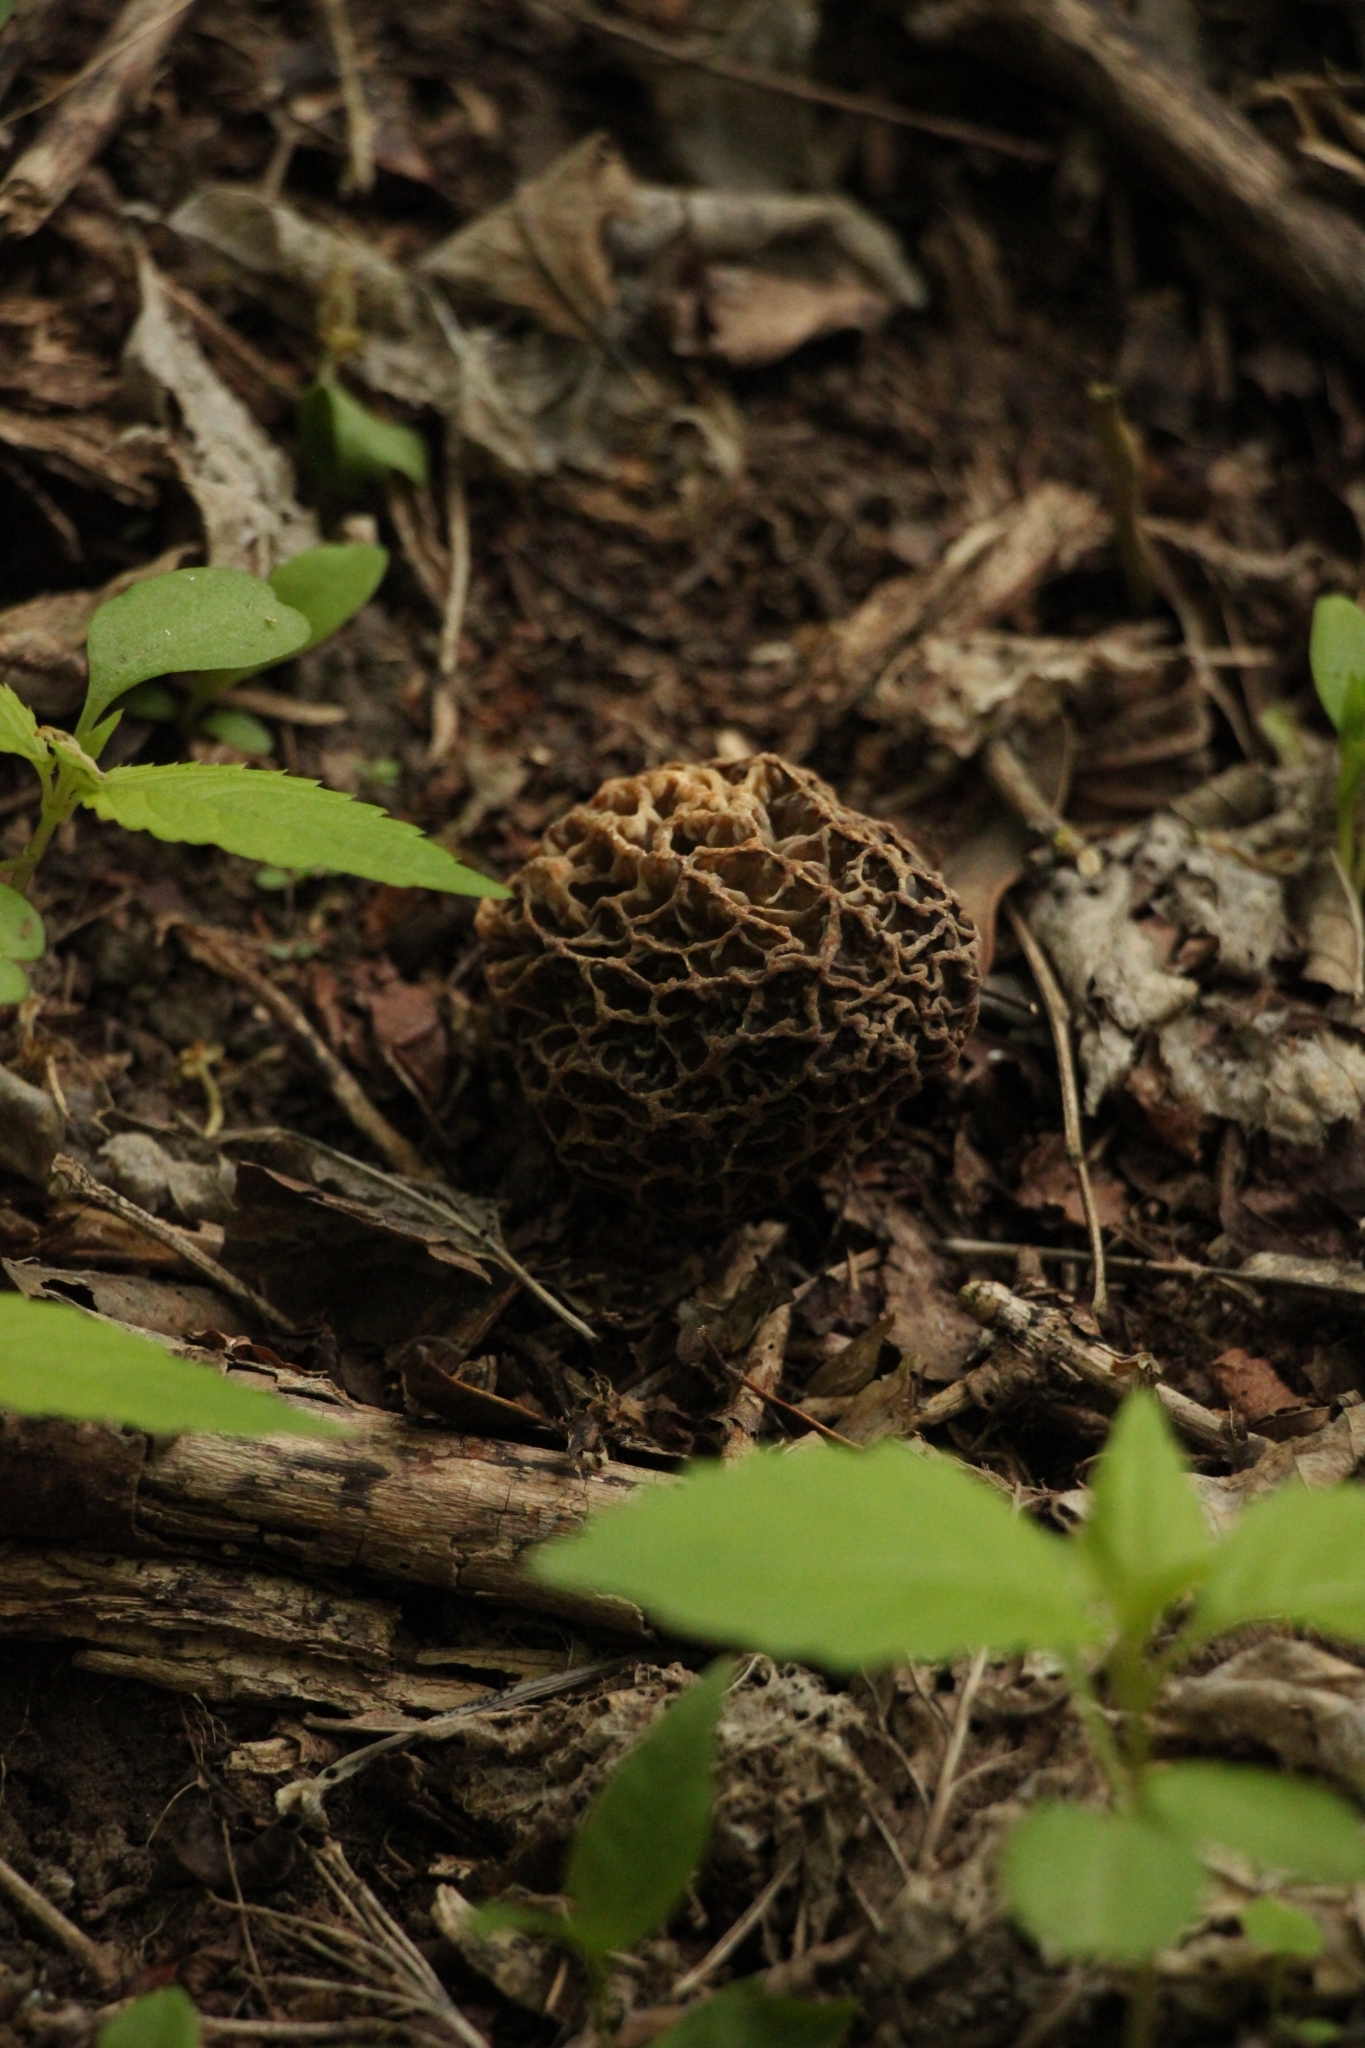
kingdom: Fungi
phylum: Ascomycota
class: Pezizomycetes
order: Pezizales
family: Morchellaceae
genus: Morchella
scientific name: Morchella esculenta
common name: Morel
